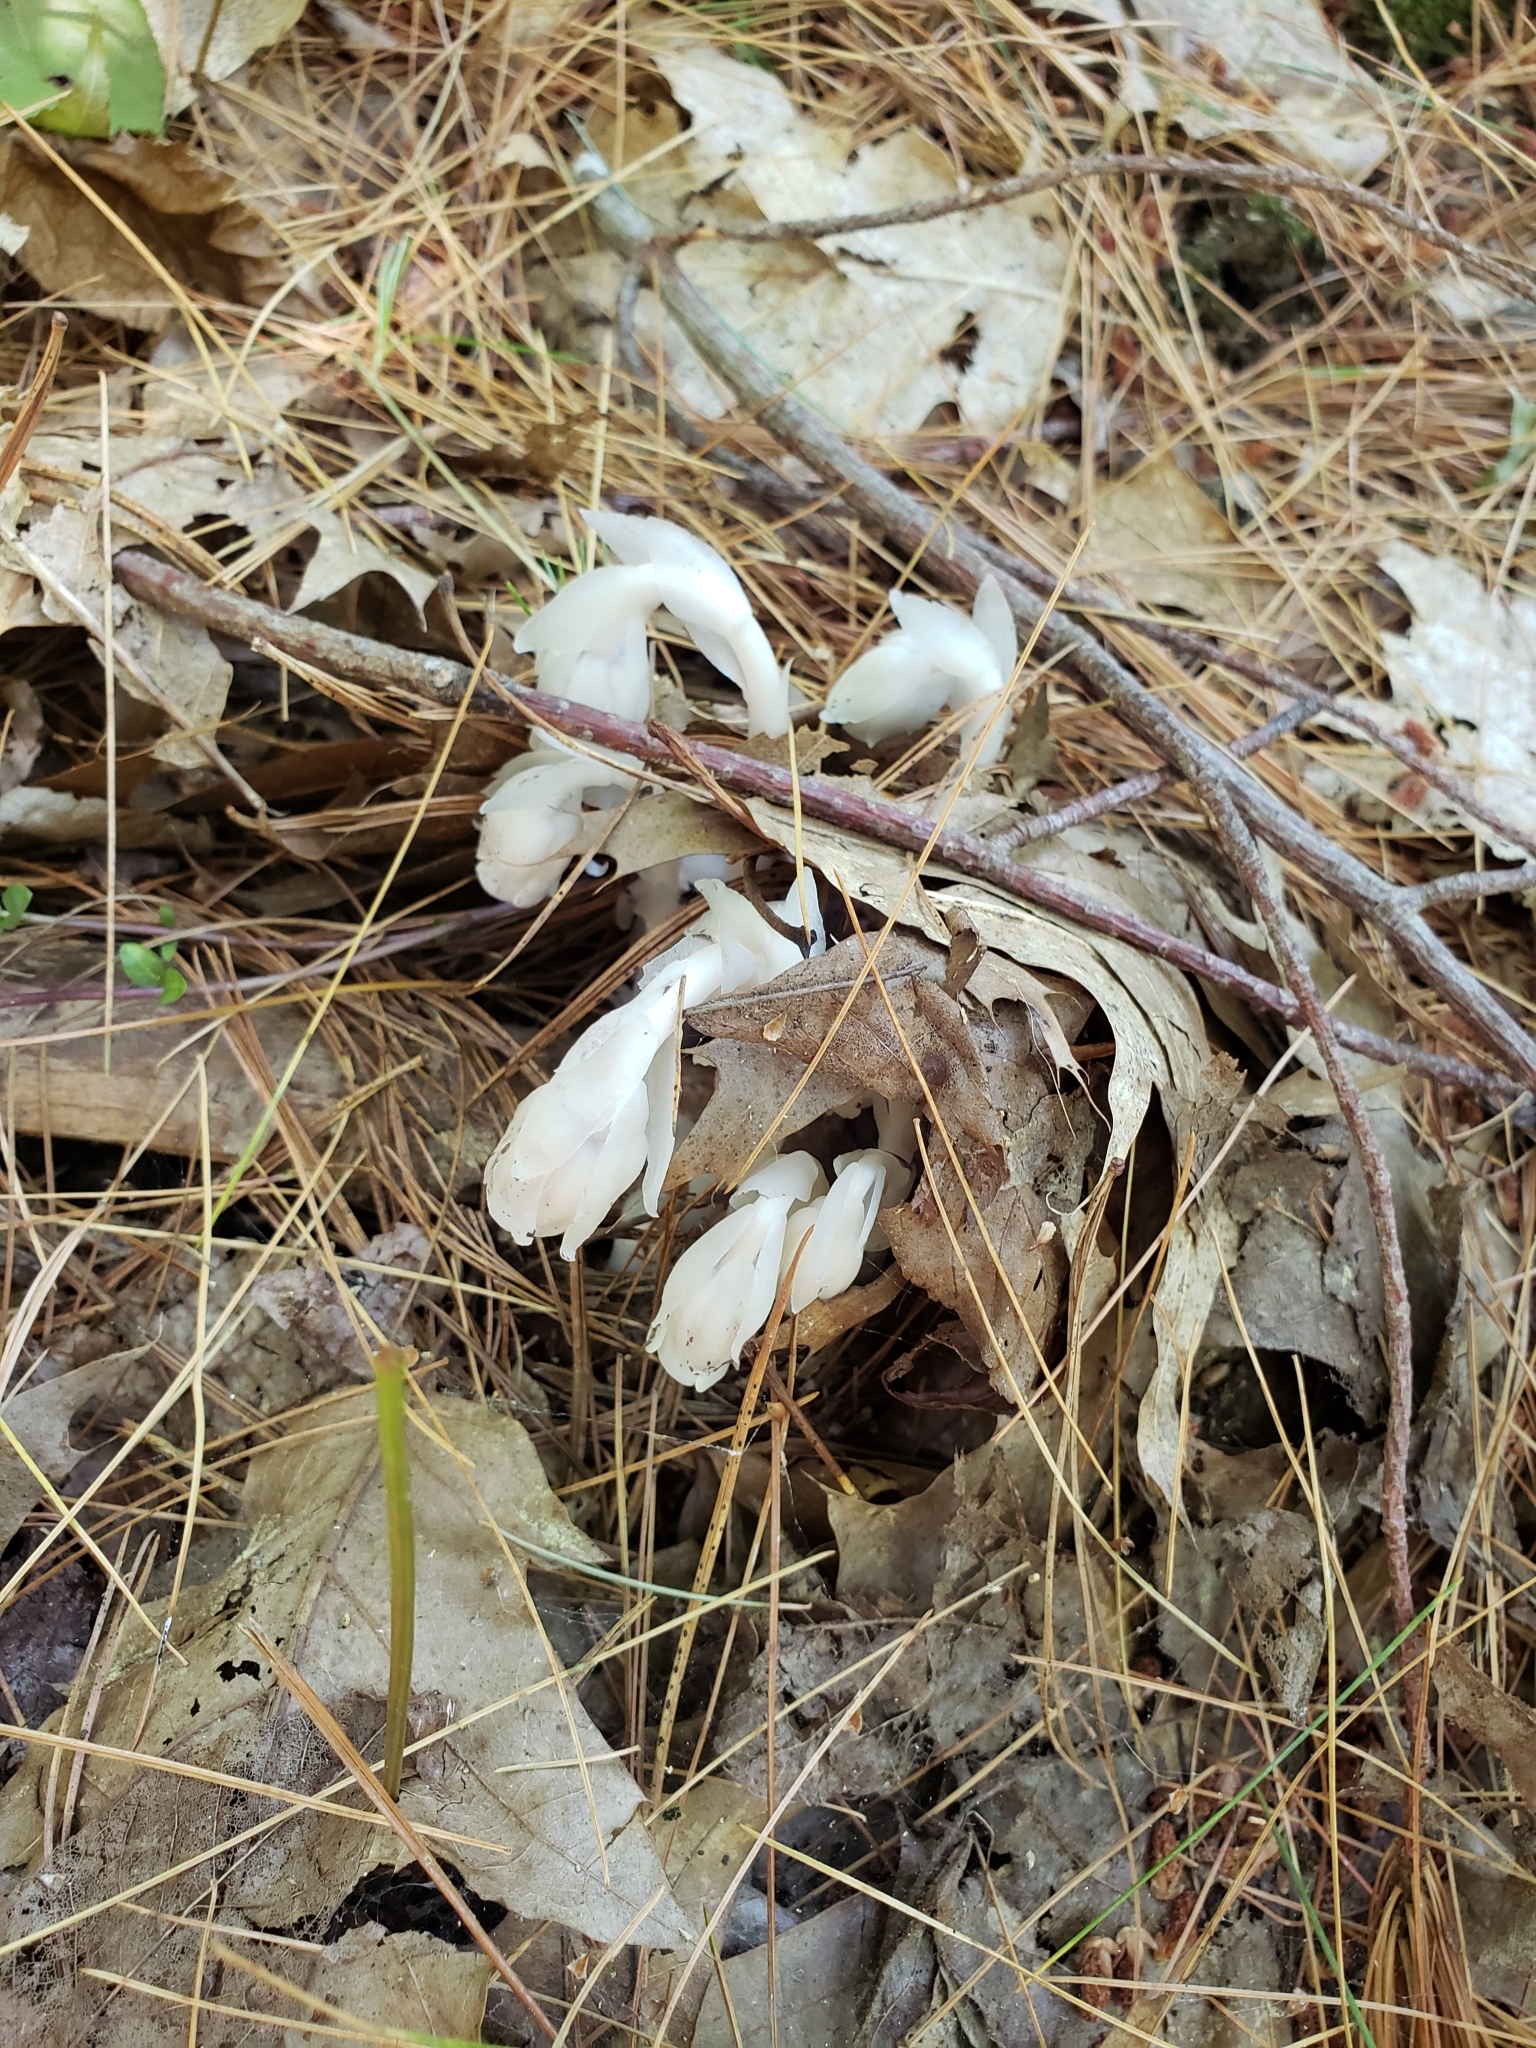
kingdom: Plantae
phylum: Tracheophyta
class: Magnoliopsida
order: Ericales
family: Ericaceae
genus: Monotropa
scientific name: Monotropa uniflora
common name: Convulsion root
